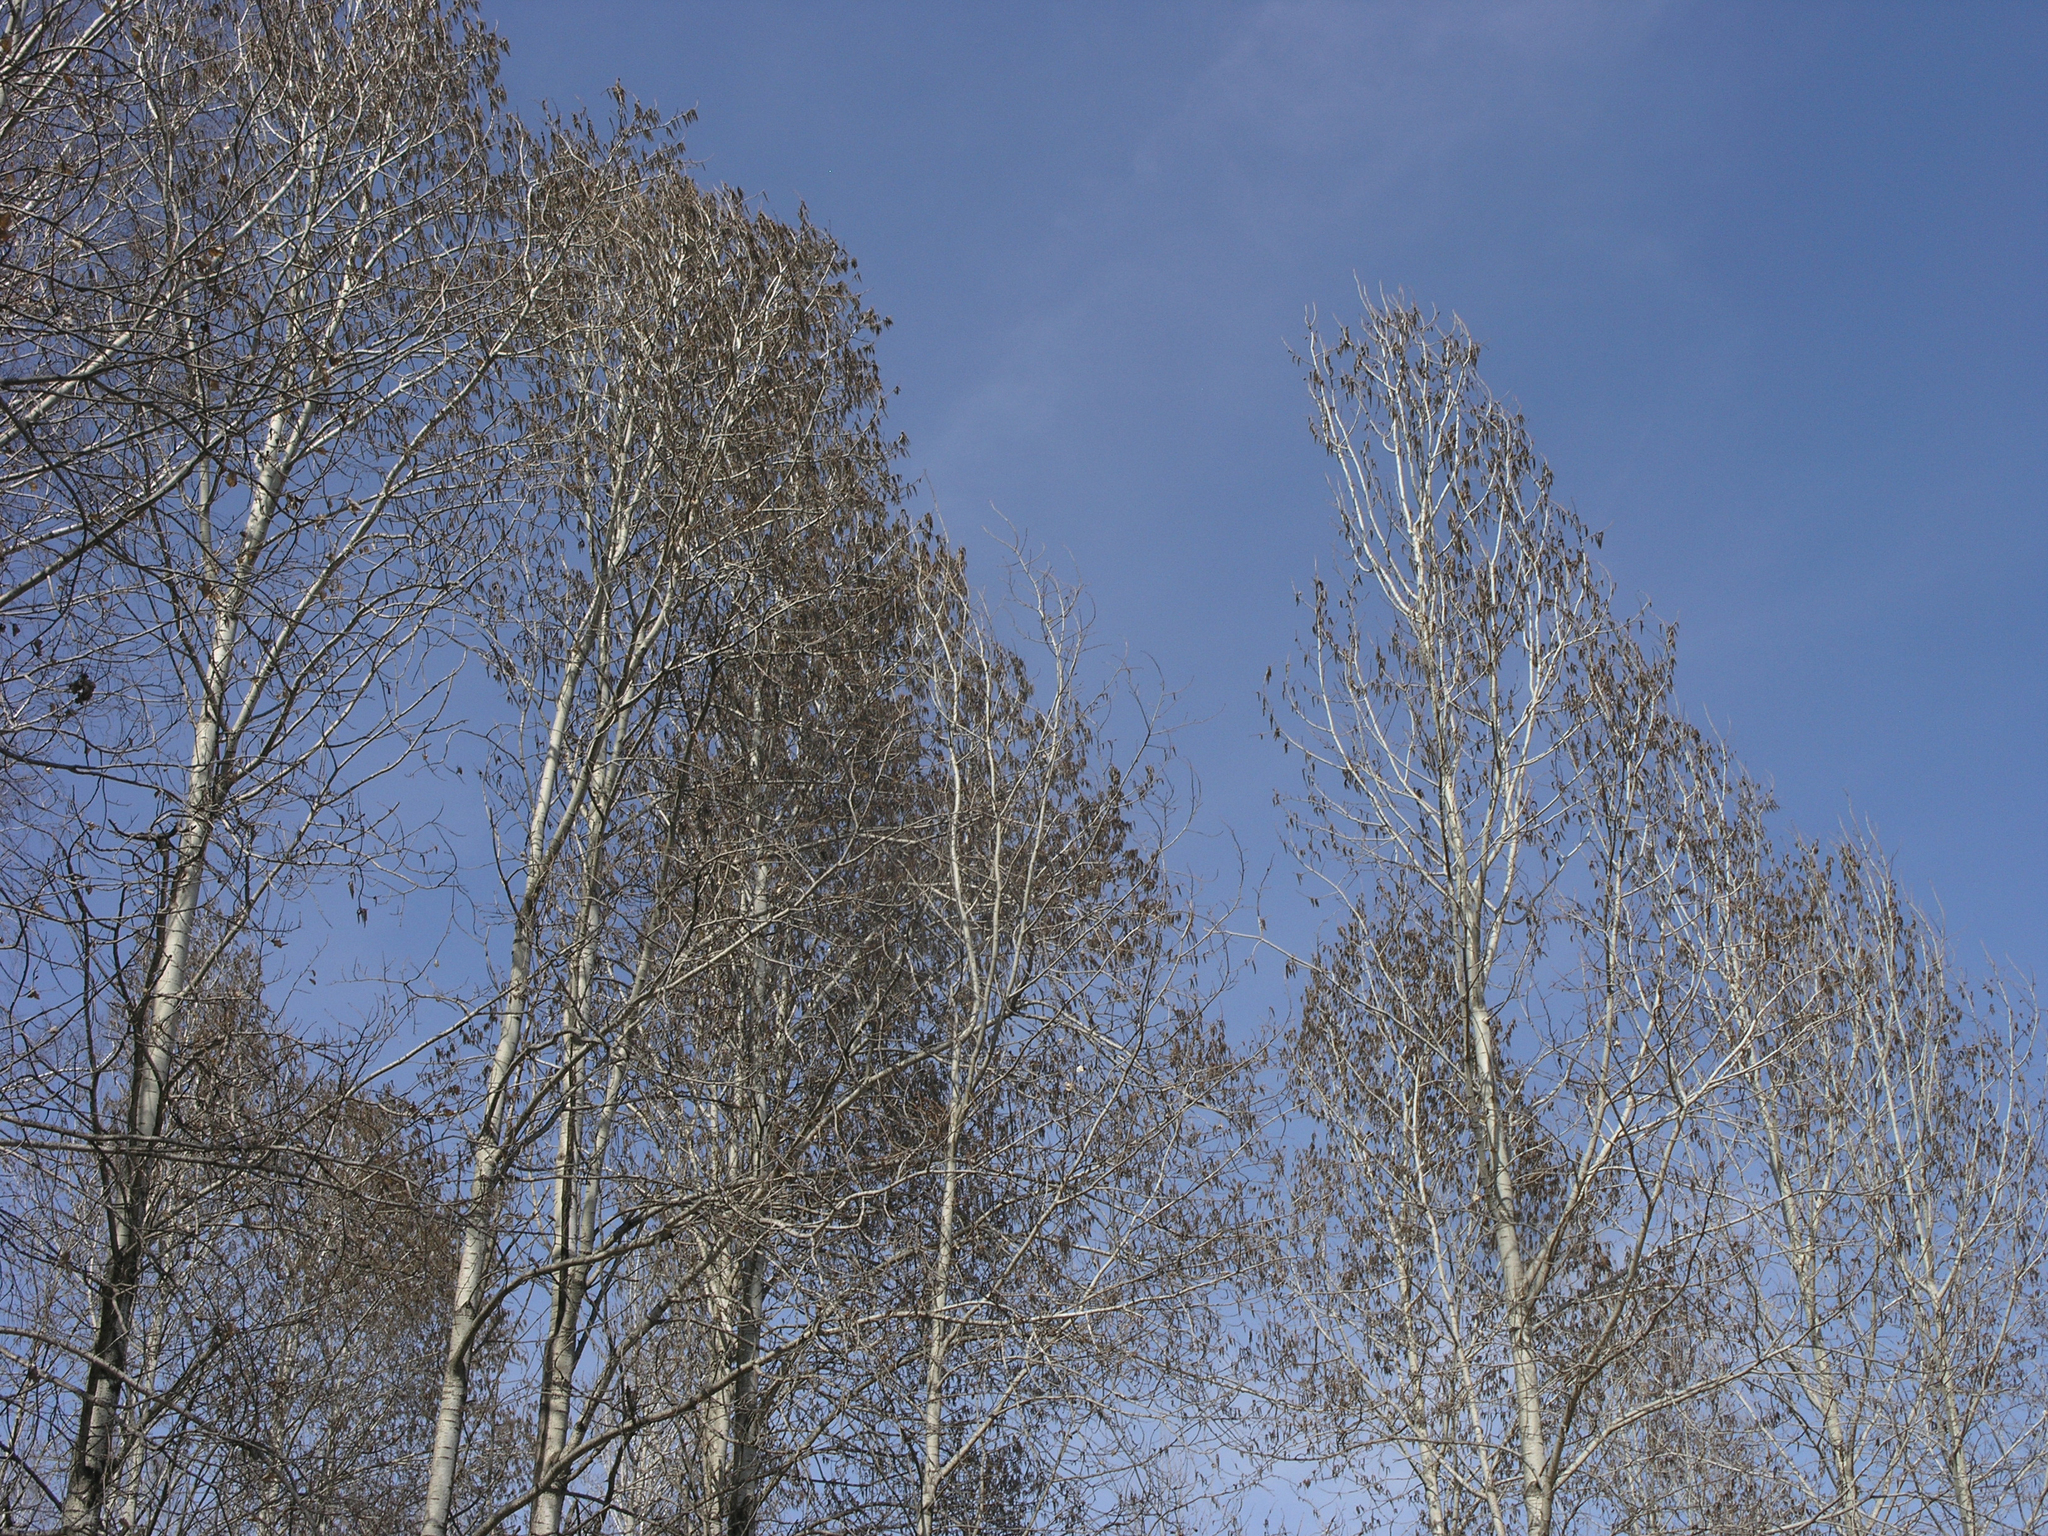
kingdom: Plantae
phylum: Tracheophyta
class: Magnoliopsida
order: Malpighiales
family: Salicaceae
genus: Populus
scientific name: Populus tremula
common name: European aspen
